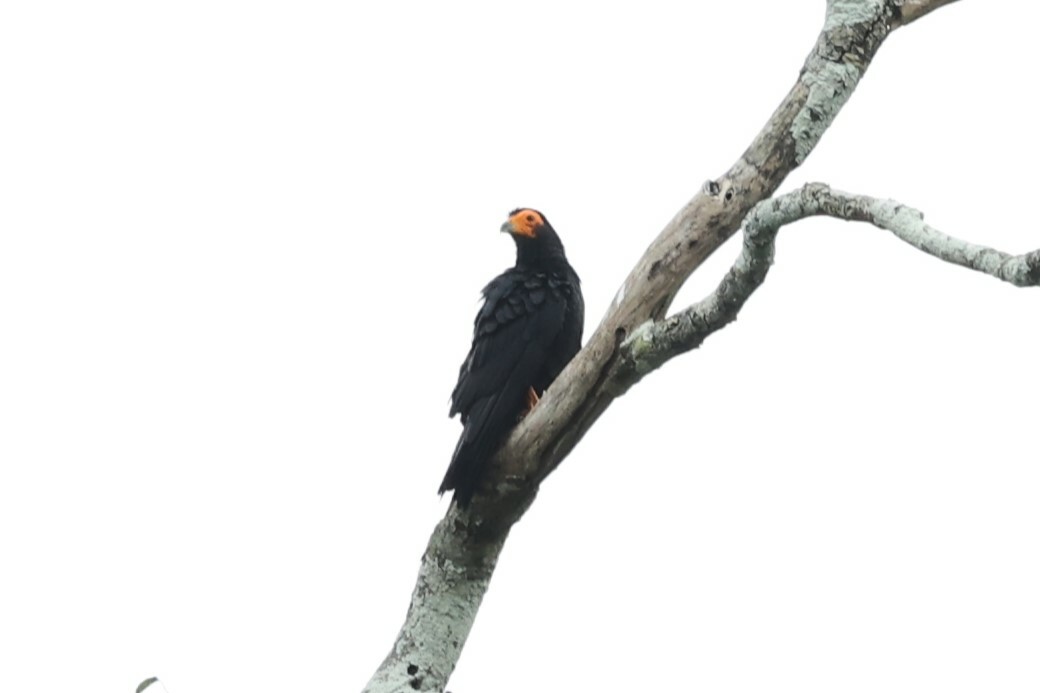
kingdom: Animalia
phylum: Chordata
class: Aves
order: Falconiformes
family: Falconidae
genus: Daptrius
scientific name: Daptrius ater
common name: Black caracara
